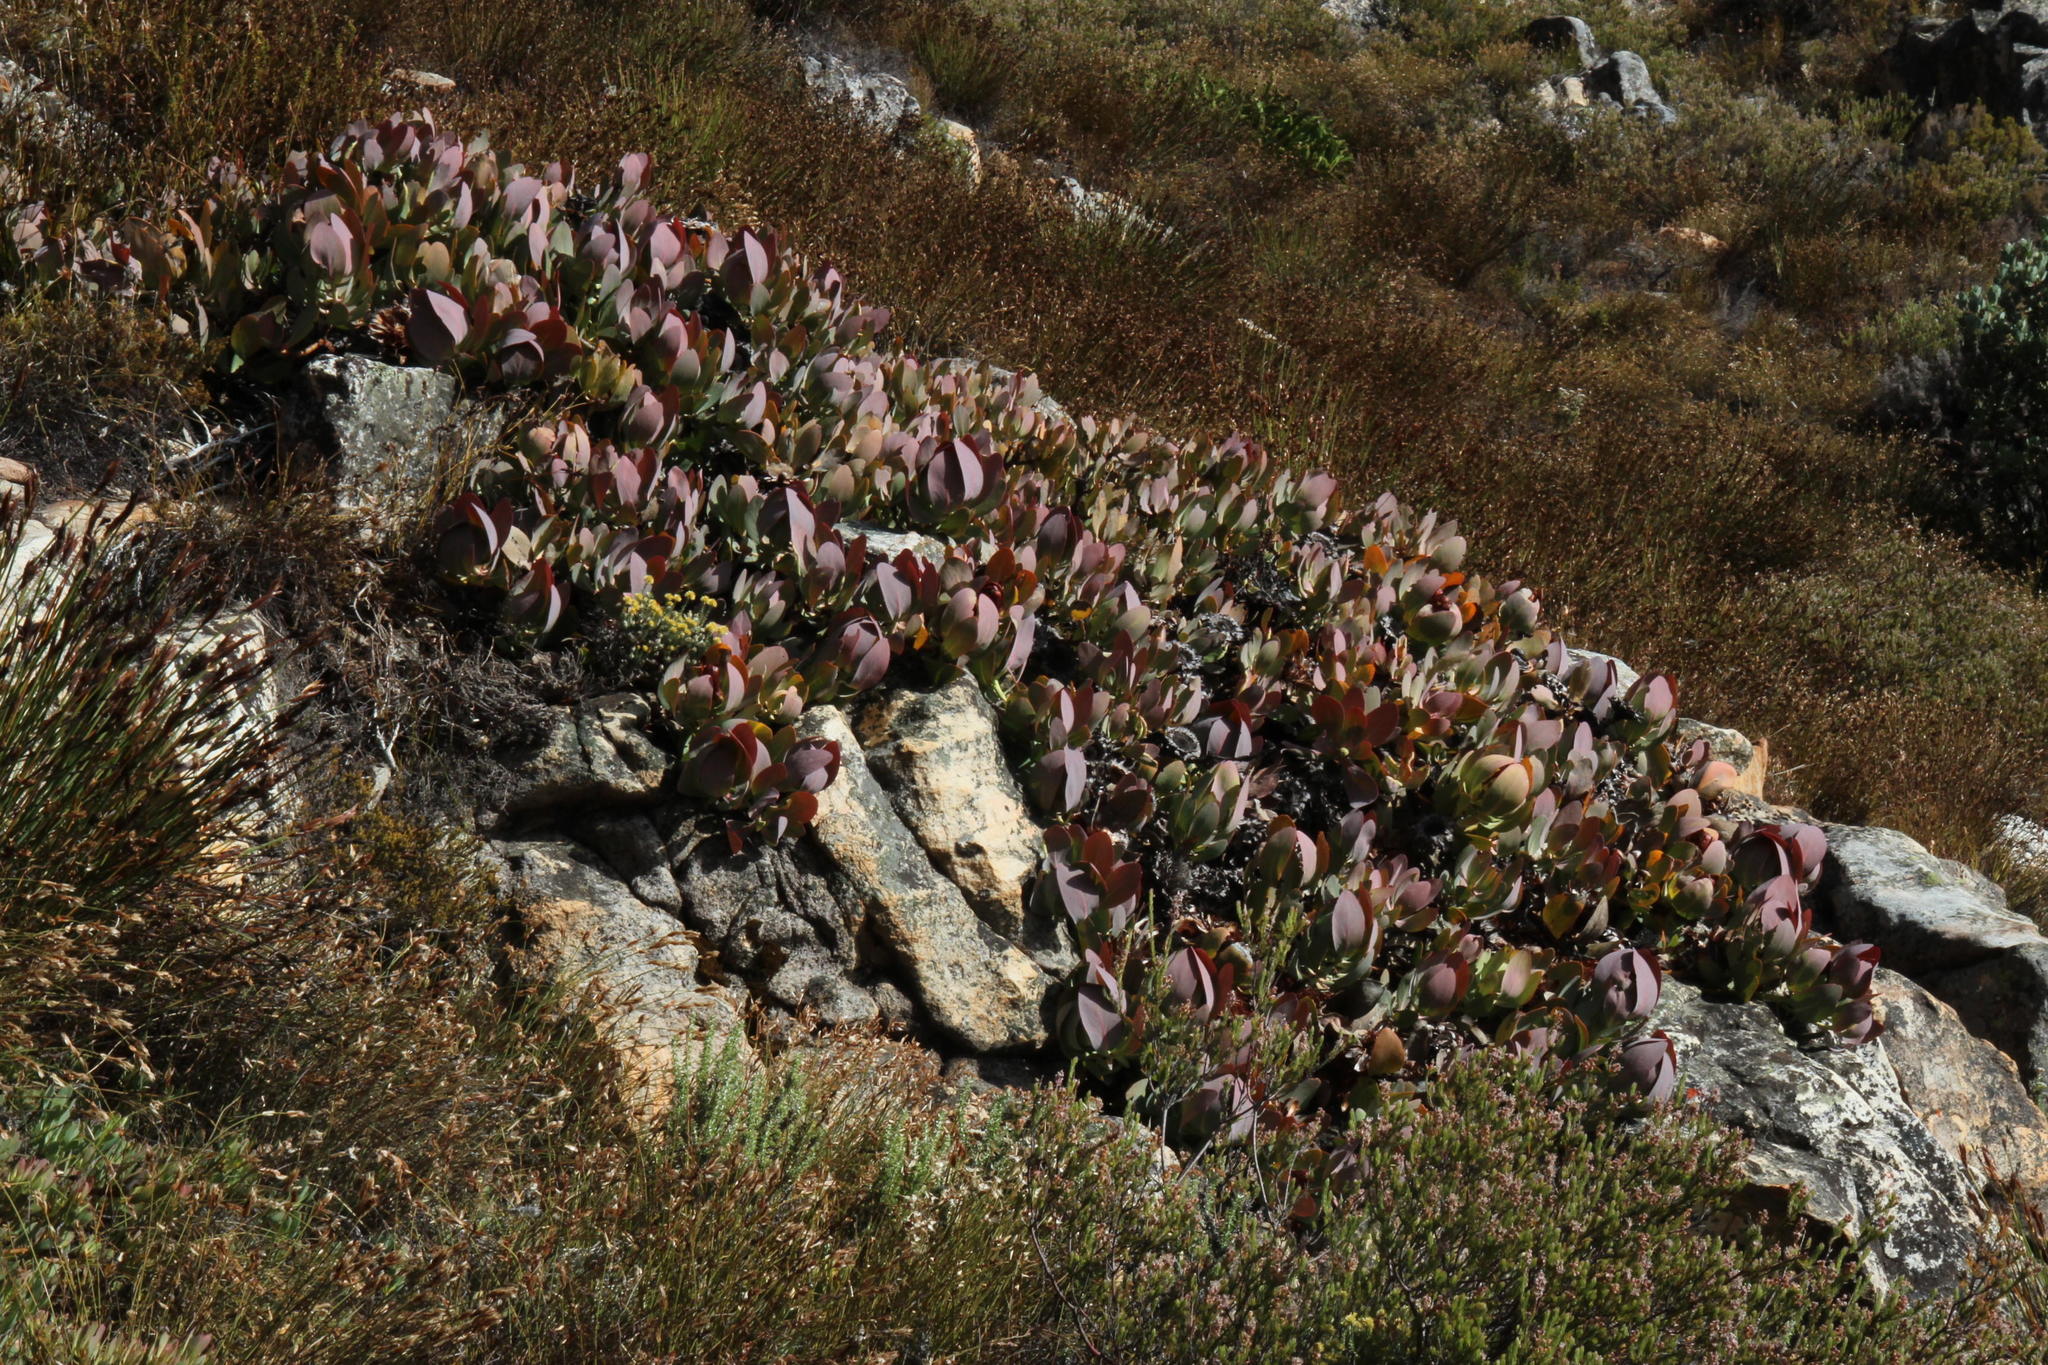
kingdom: Plantae
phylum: Tracheophyta
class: Magnoliopsida
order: Proteales
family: Proteaceae
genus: Protea
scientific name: Protea recondita
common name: Hidden sugarbush
